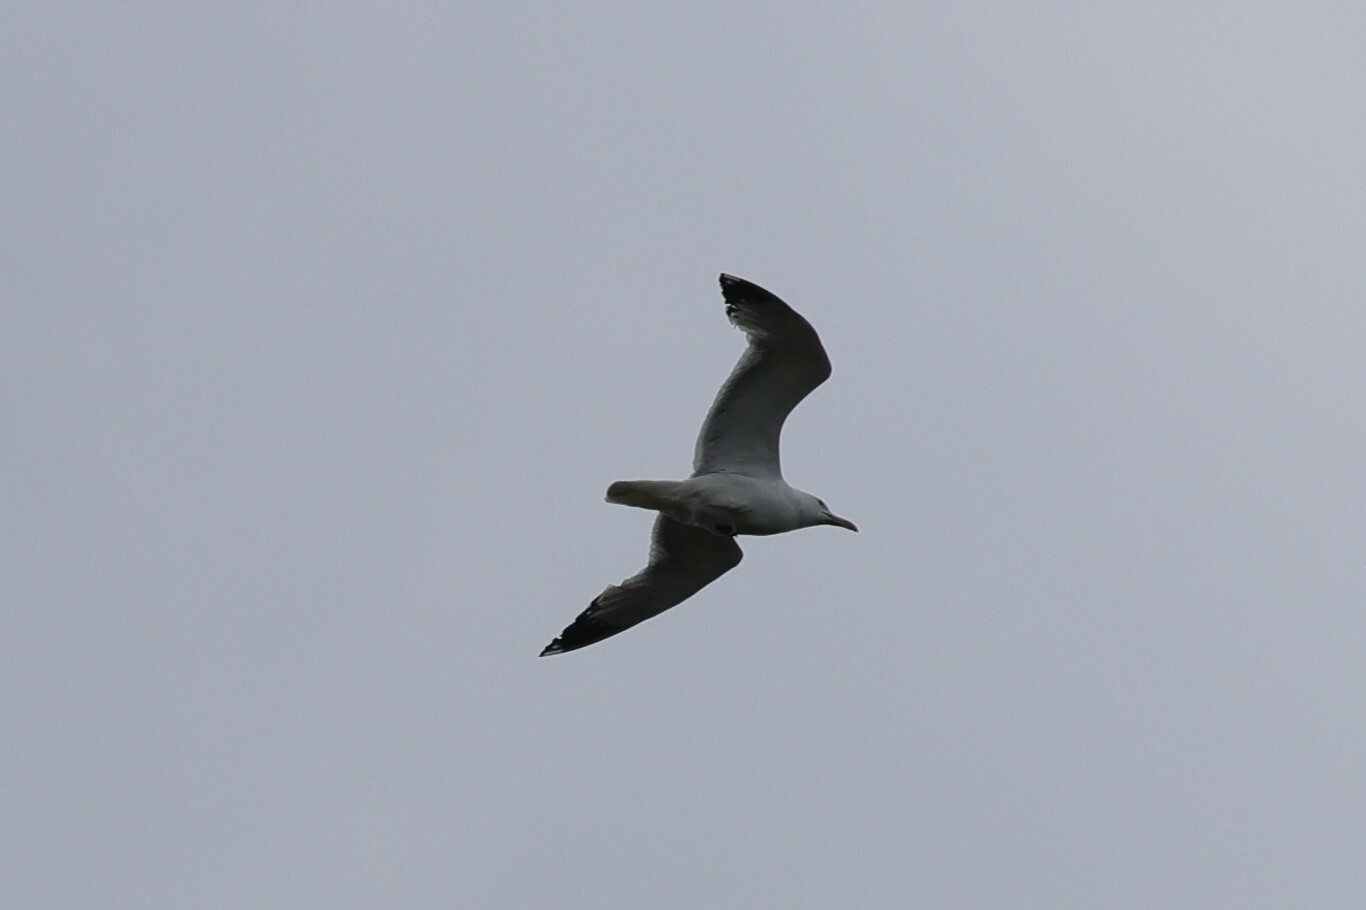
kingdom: Animalia
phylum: Chordata
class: Aves
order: Charadriiformes
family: Laridae
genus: Larus
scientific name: Larus argentatus
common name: Herring gull
